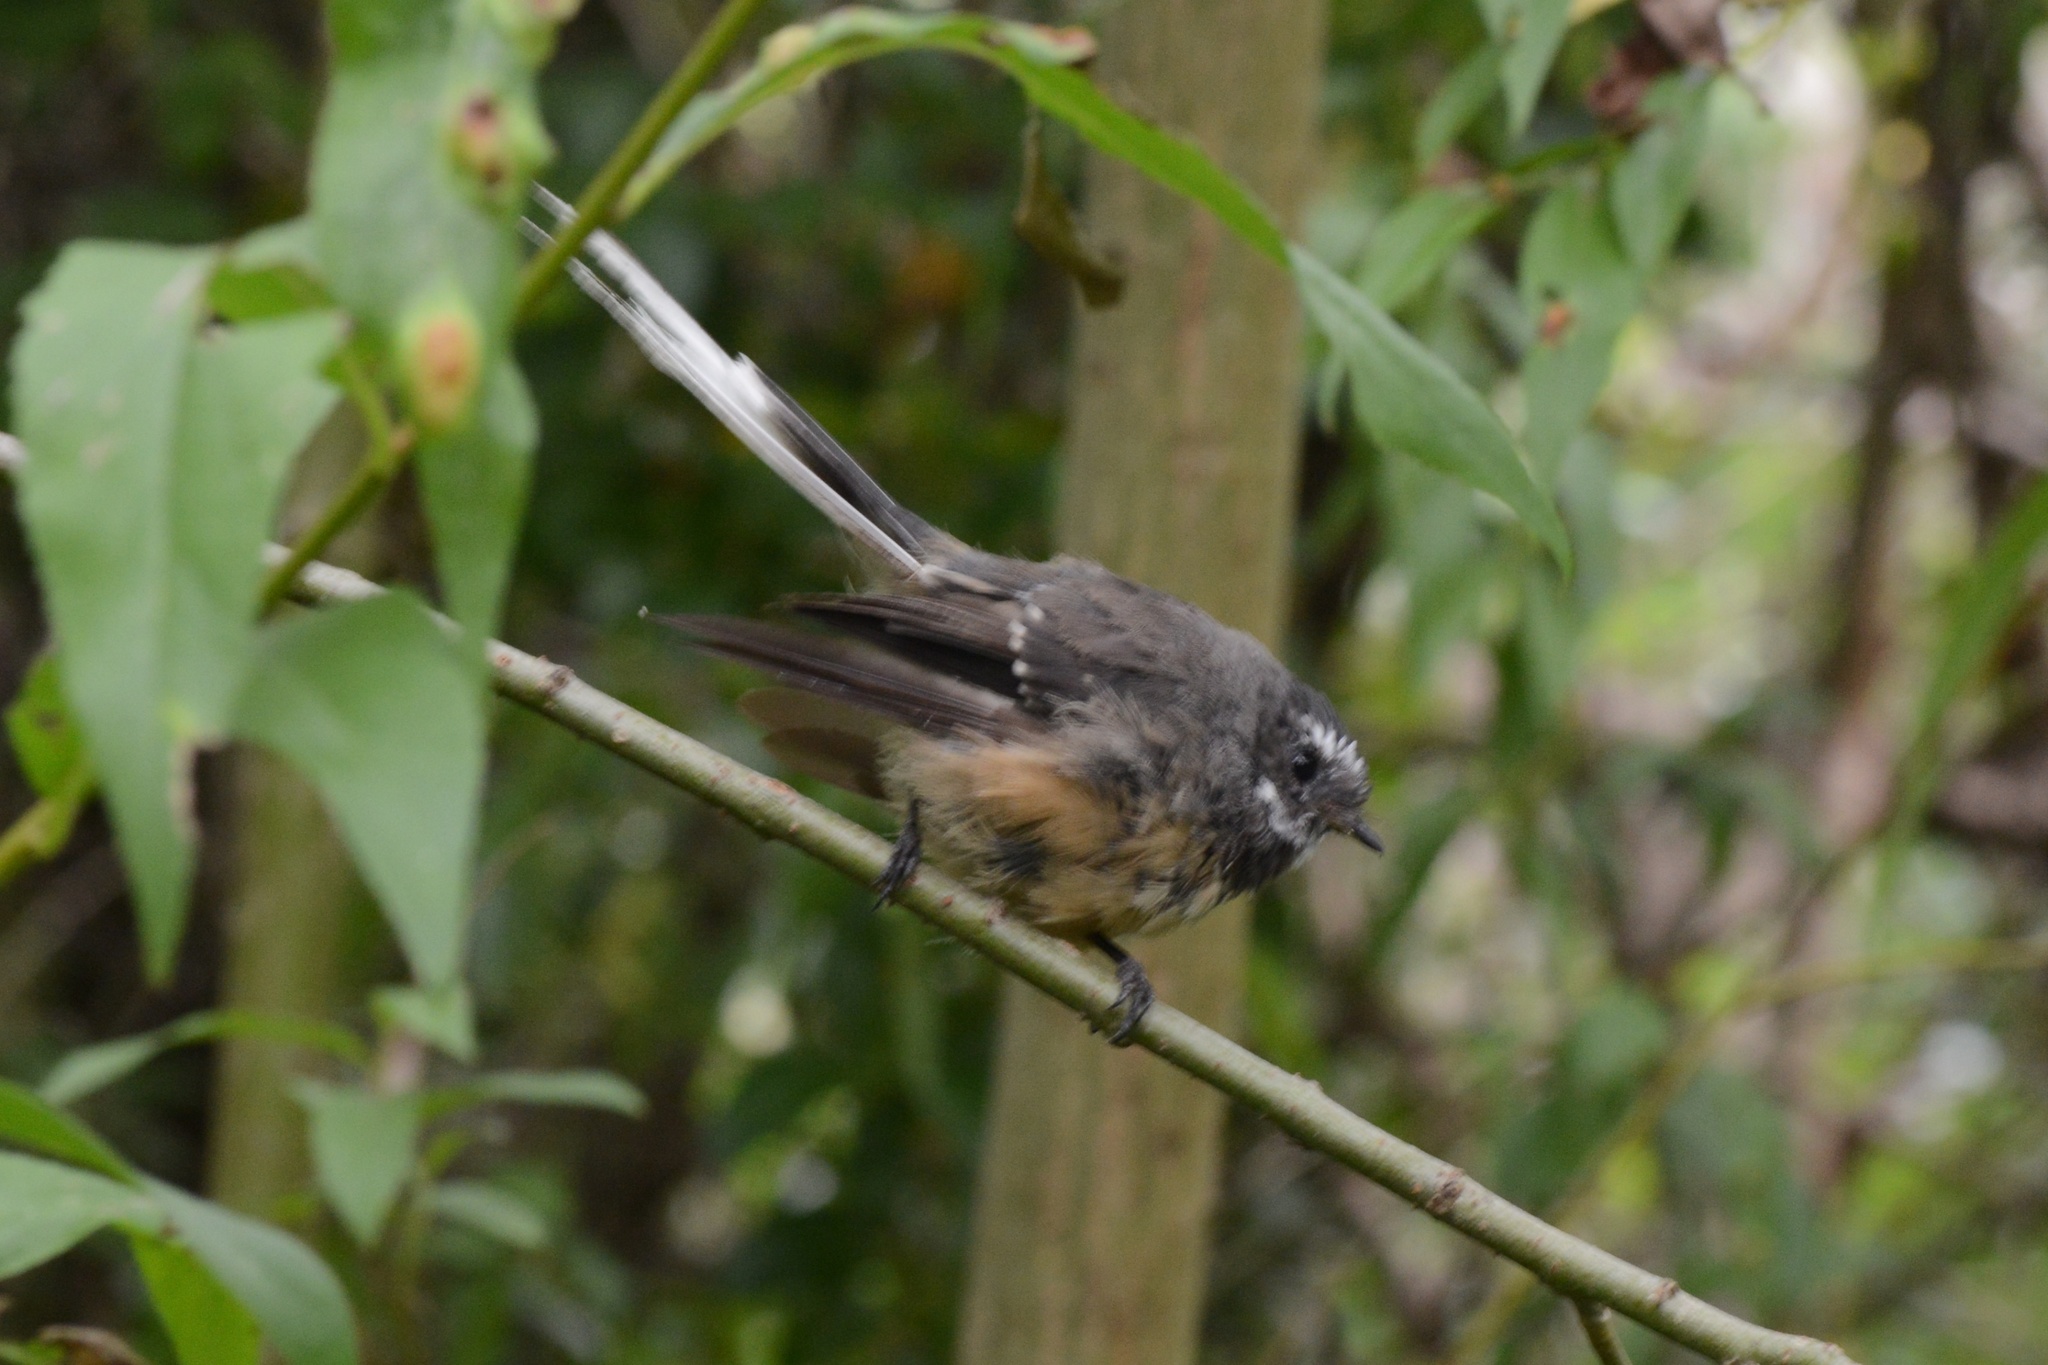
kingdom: Animalia
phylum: Chordata
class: Aves
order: Passeriformes
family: Rhipiduridae
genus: Rhipidura
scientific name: Rhipidura fuliginosa
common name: New zealand fantail
